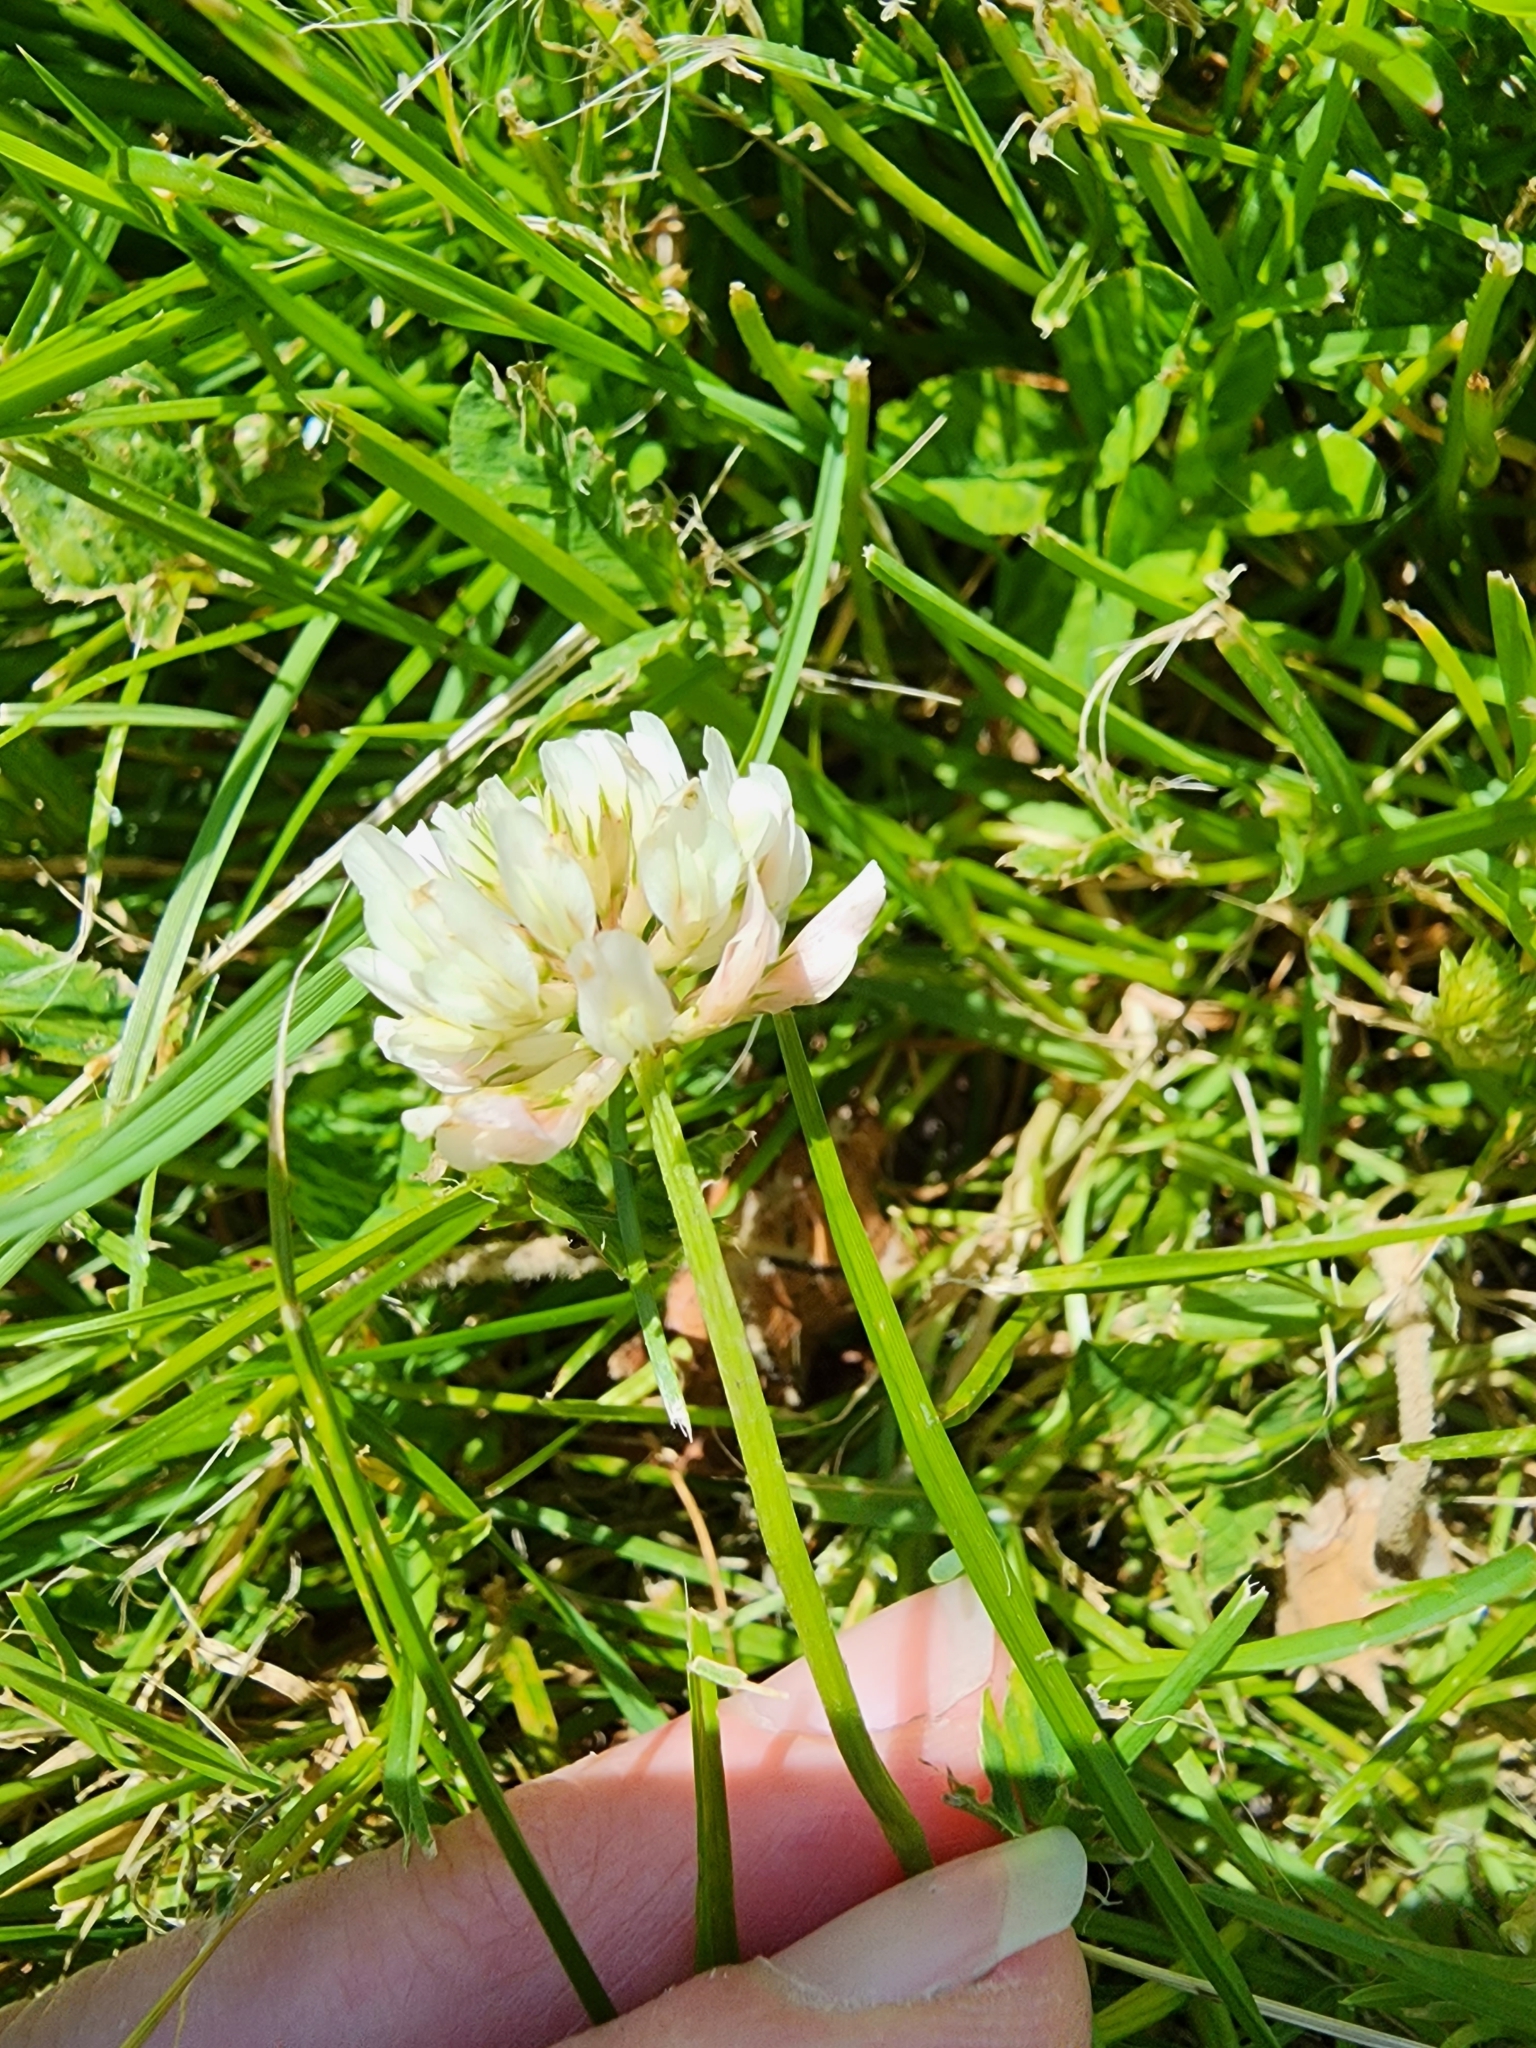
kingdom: Plantae
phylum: Tracheophyta
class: Magnoliopsida
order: Fabales
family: Fabaceae
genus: Trifolium
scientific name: Trifolium repens
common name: White clover
